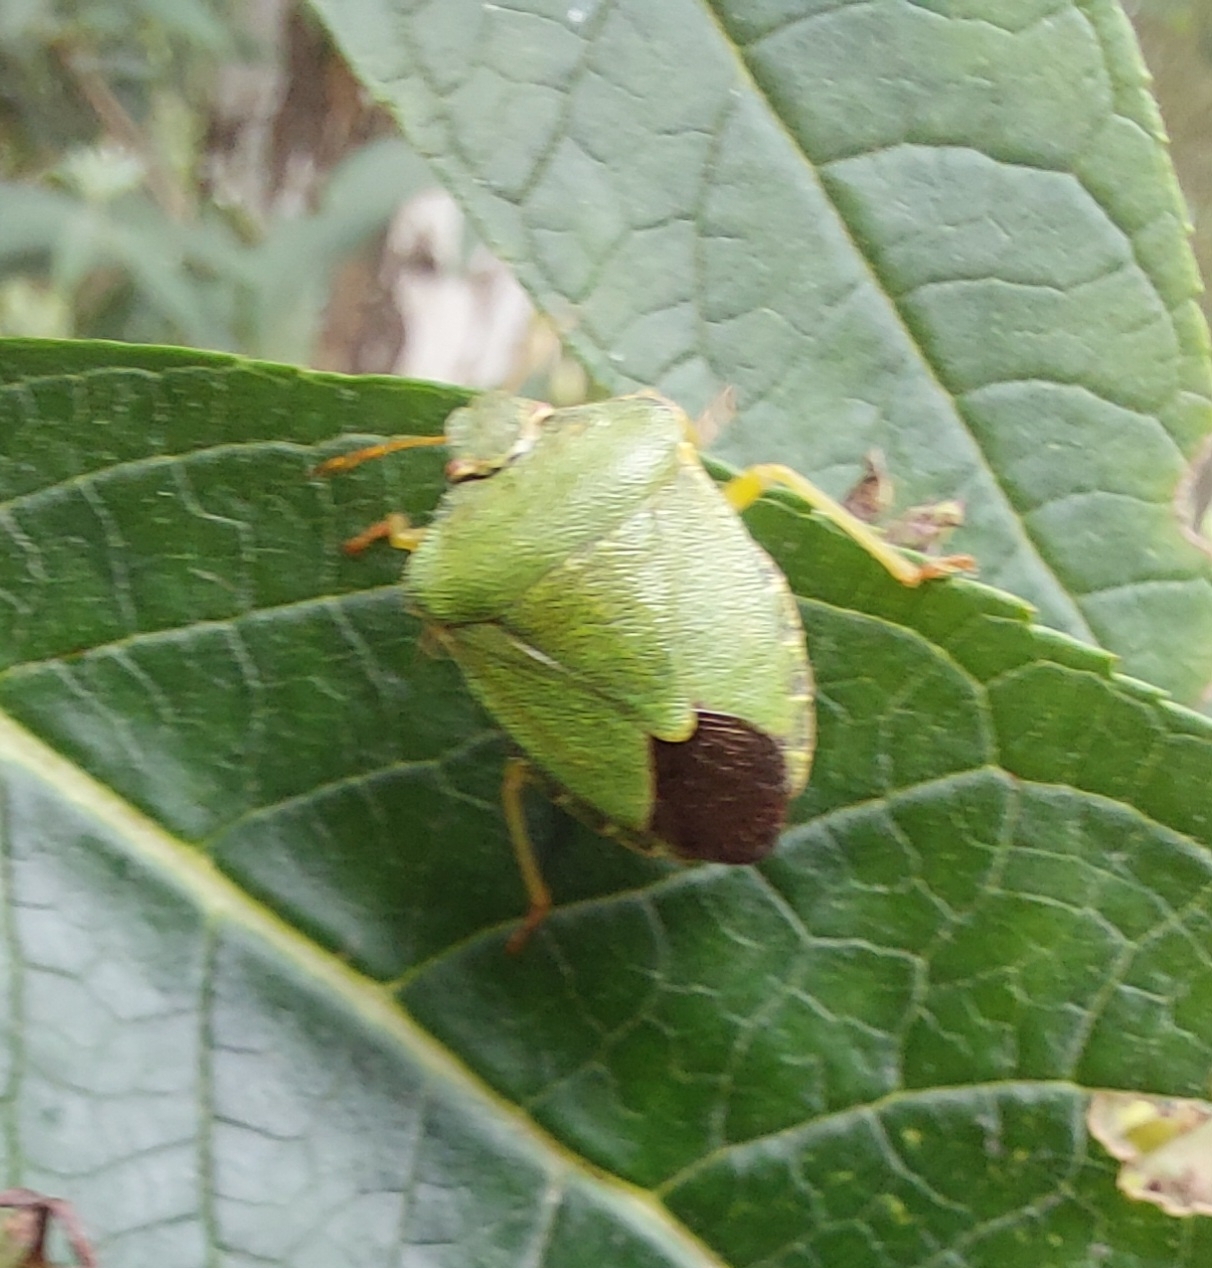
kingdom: Animalia
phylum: Arthropoda
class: Insecta
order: Hemiptera
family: Pentatomidae
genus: Palomena
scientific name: Palomena prasina
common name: Green shieldbug
